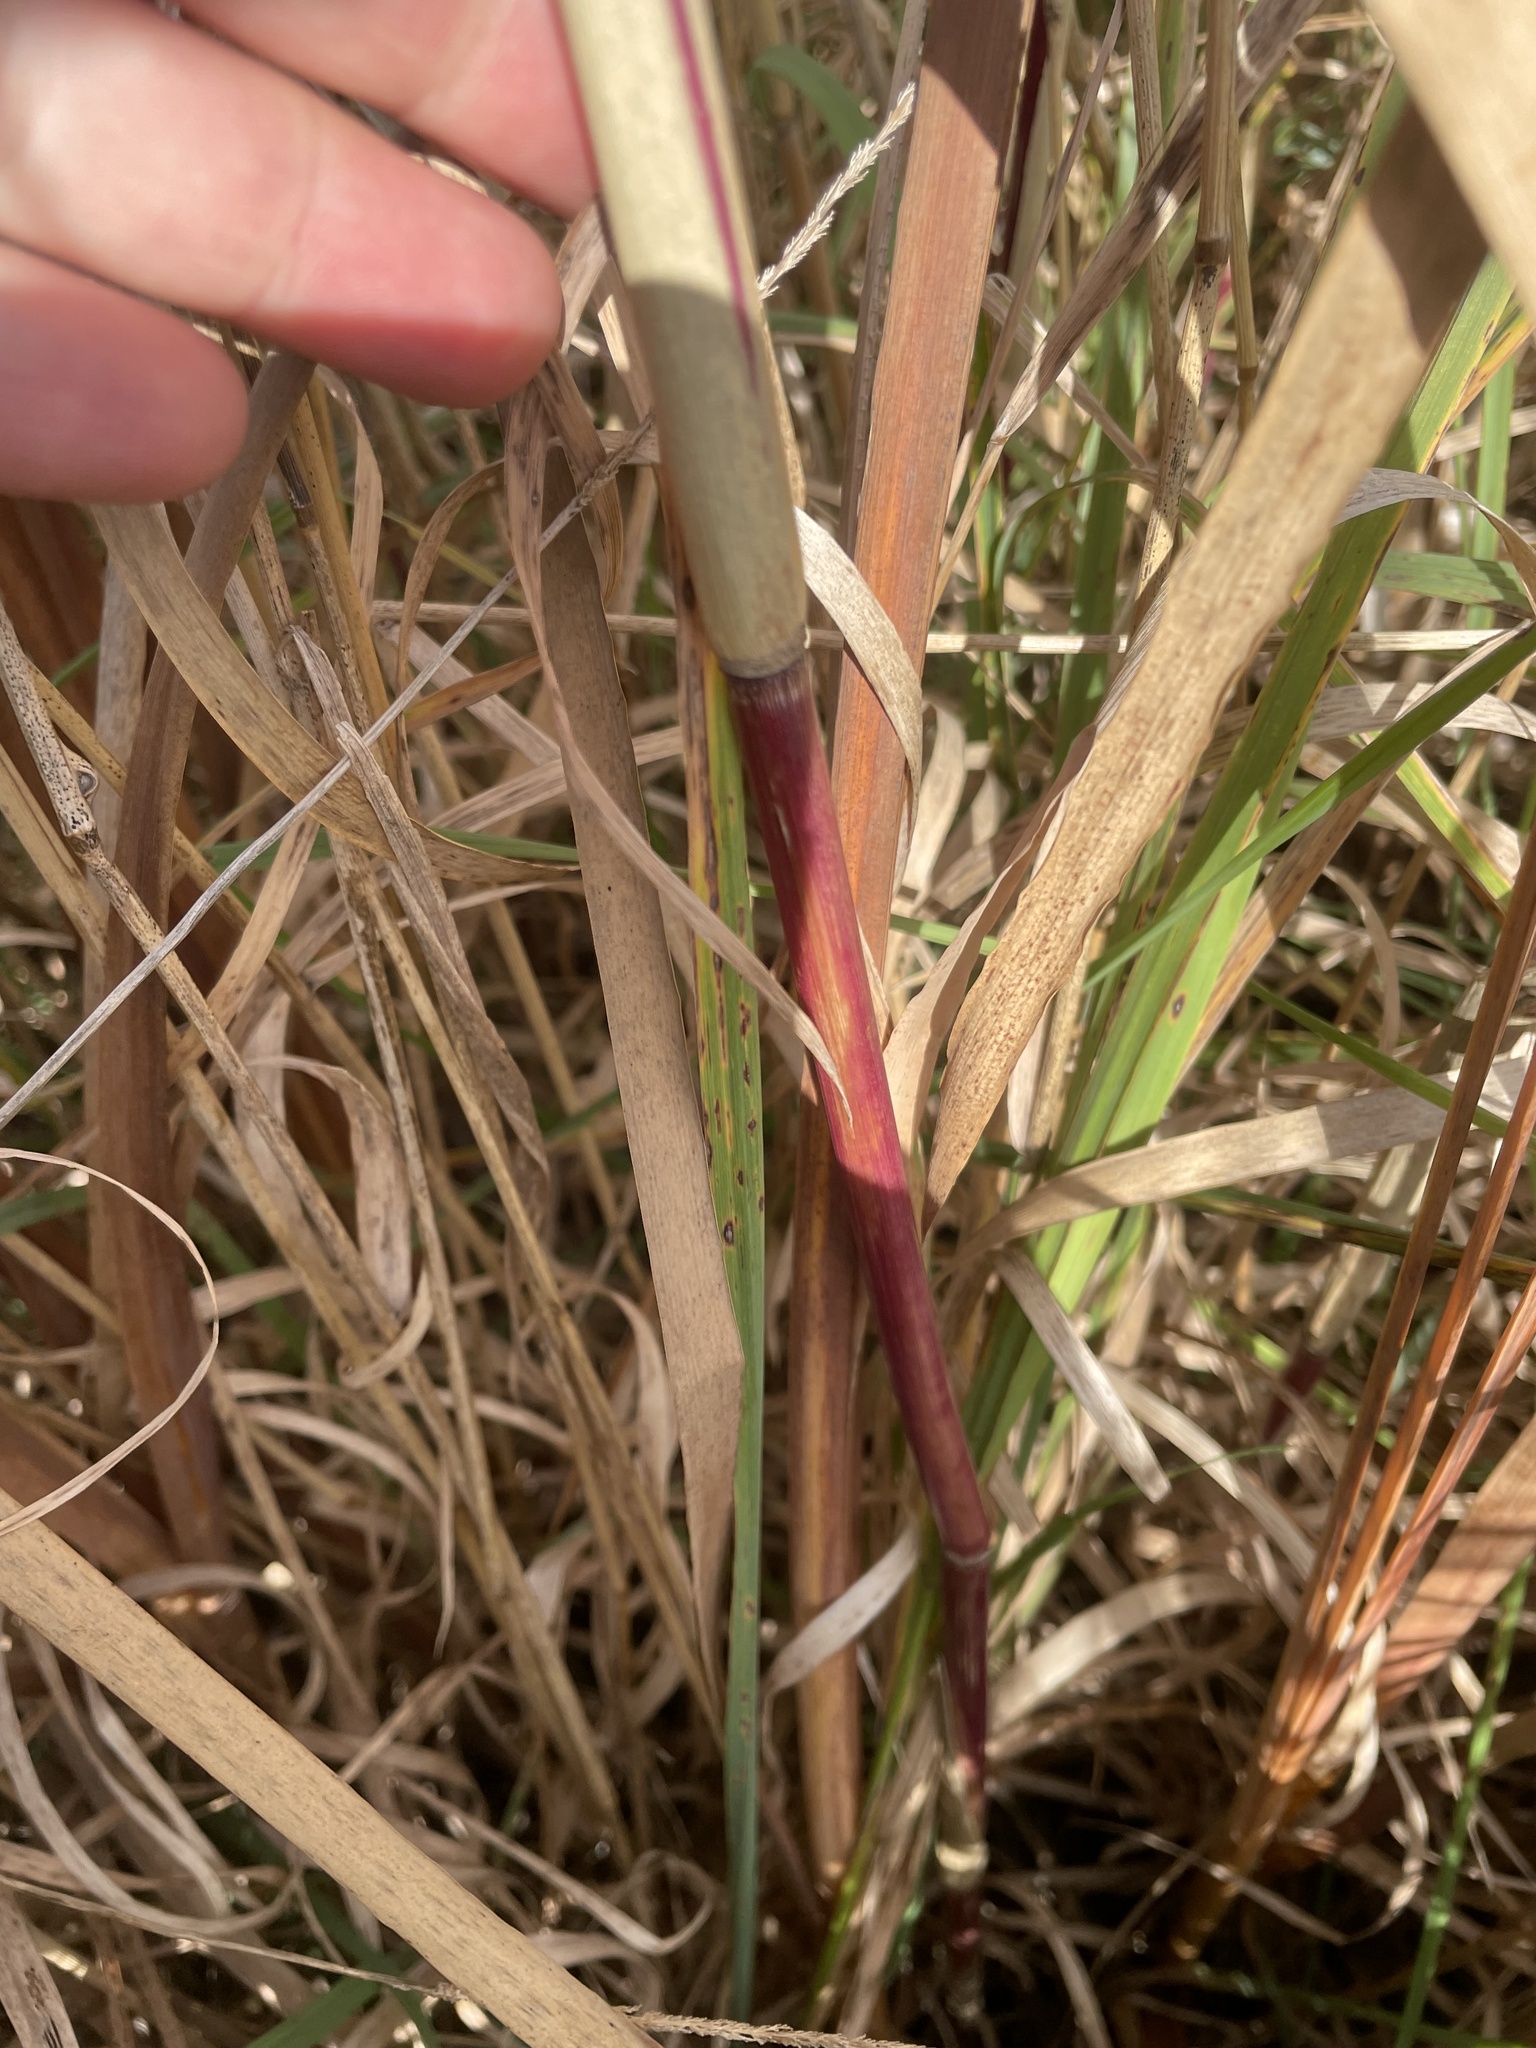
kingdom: Plantae
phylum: Tracheophyta
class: Liliopsida
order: Poales
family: Poaceae
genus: Phragmites
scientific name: Phragmites australis
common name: Common reed
